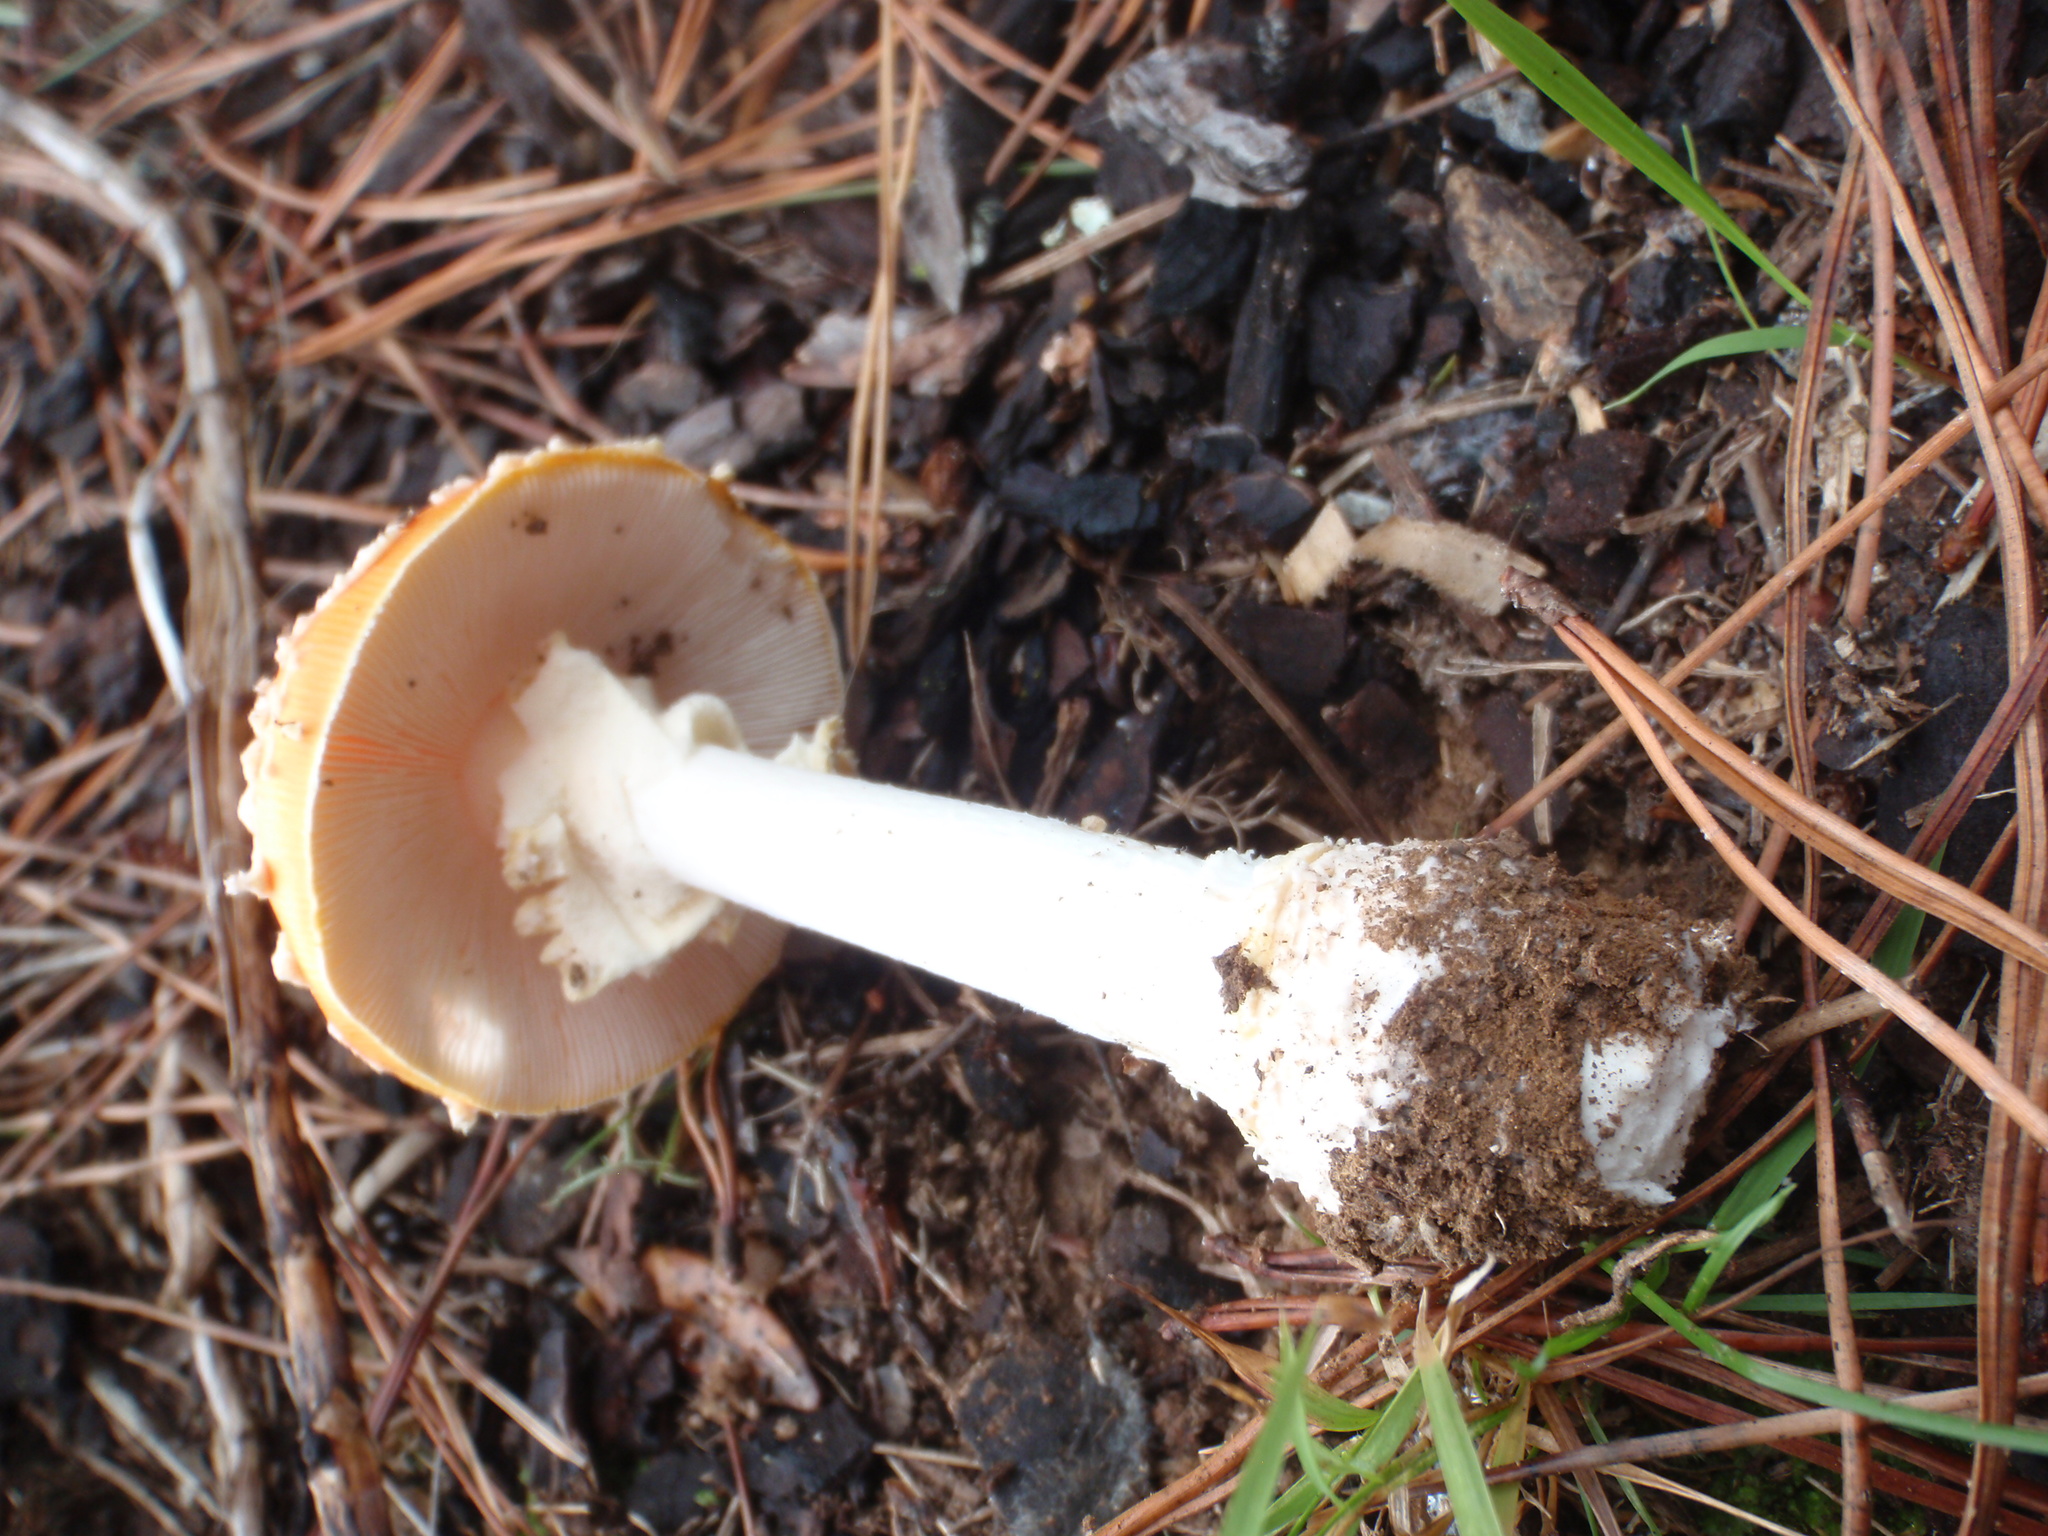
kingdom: Fungi
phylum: Basidiomycota
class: Agaricomycetes
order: Agaricales
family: Amanitaceae
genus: Amanita
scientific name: Amanita muscaria
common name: Fly agaric
